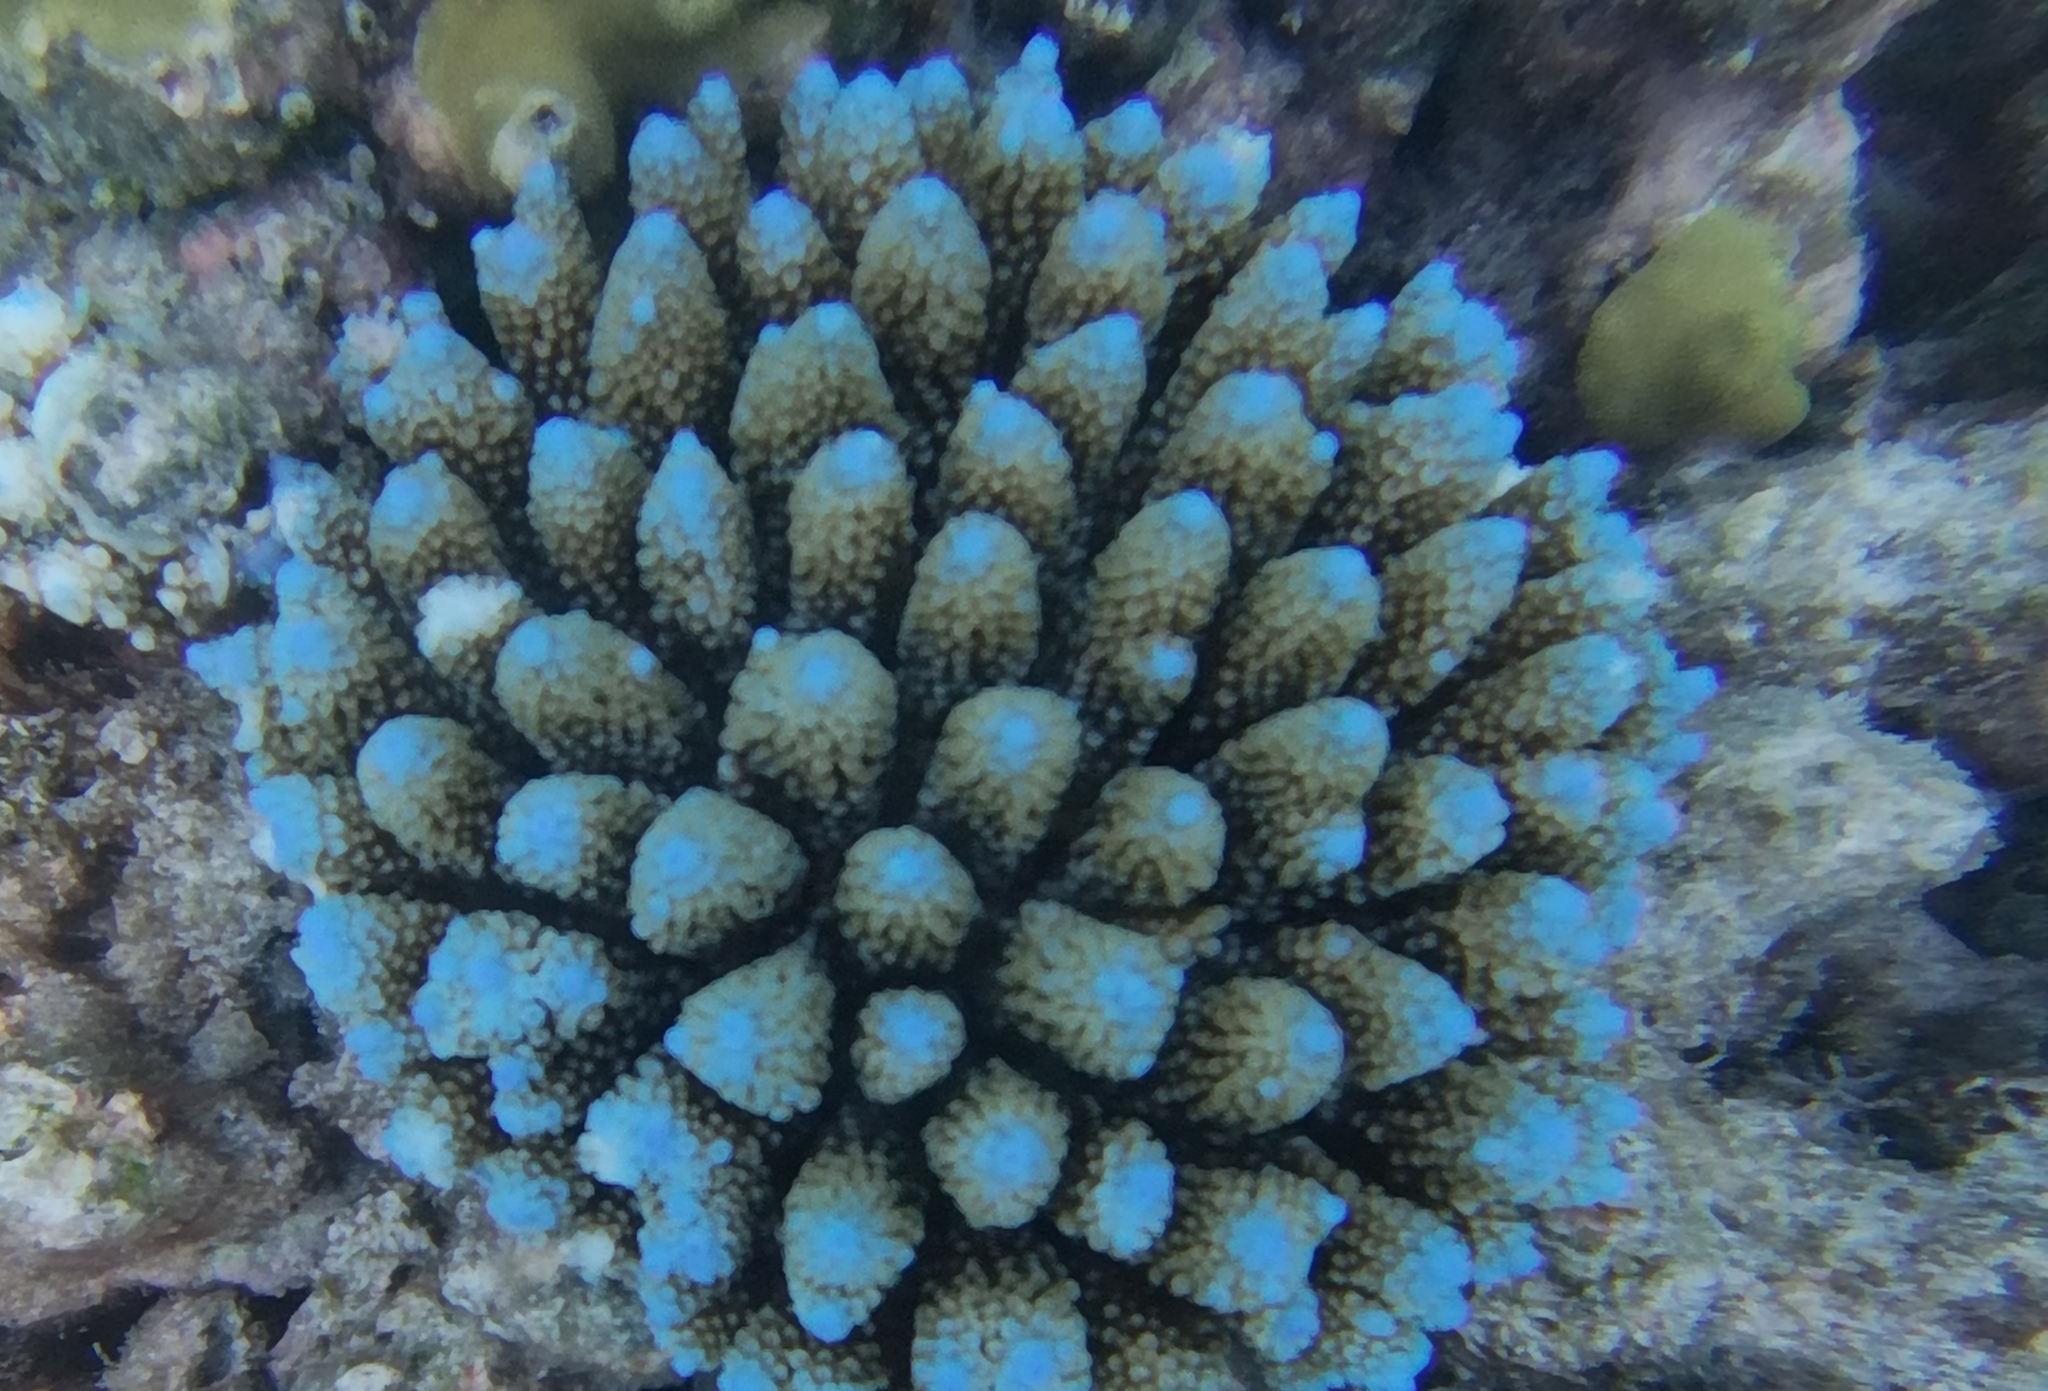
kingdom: Animalia
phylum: Cnidaria
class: Anthozoa
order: Scleractinia
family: Acroporidae
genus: Acropora
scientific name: Acropora gemmifera
